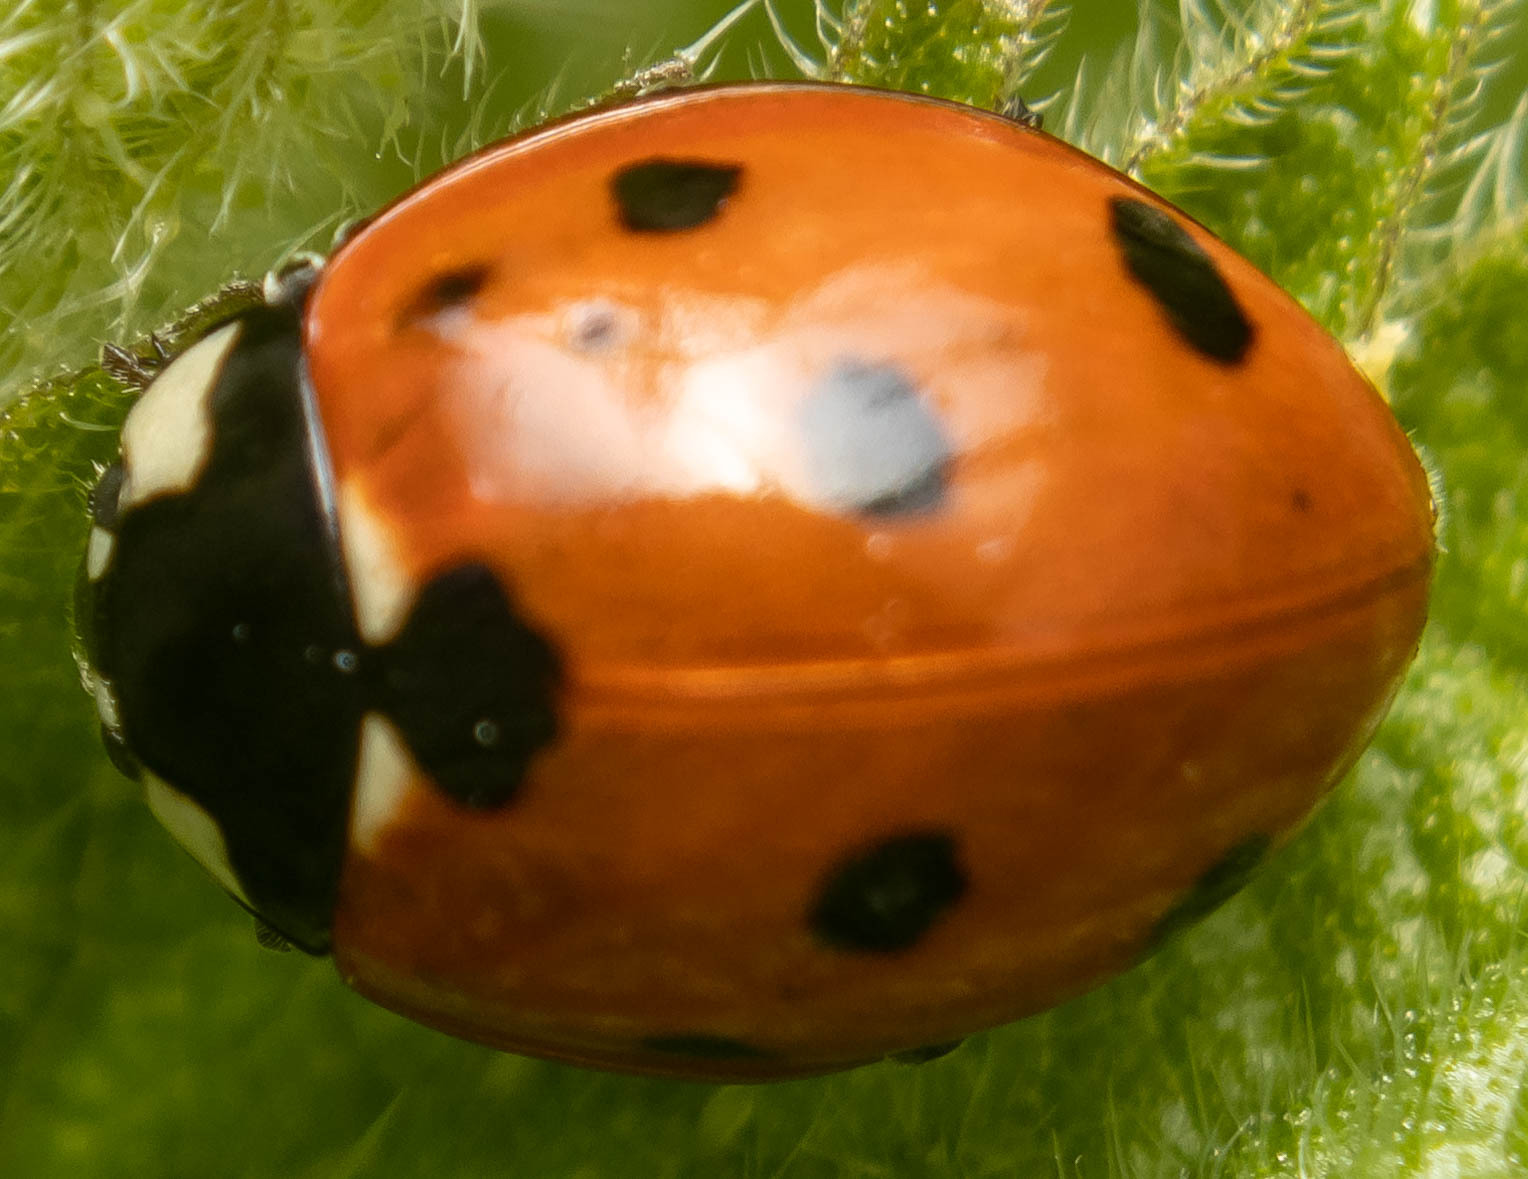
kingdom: Animalia
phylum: Arthropoda
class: Insecta
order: Coleoptera
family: Coccinellidae
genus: Coccinella
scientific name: Coccinella septempunctata
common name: Sevenspotted lady beetle
